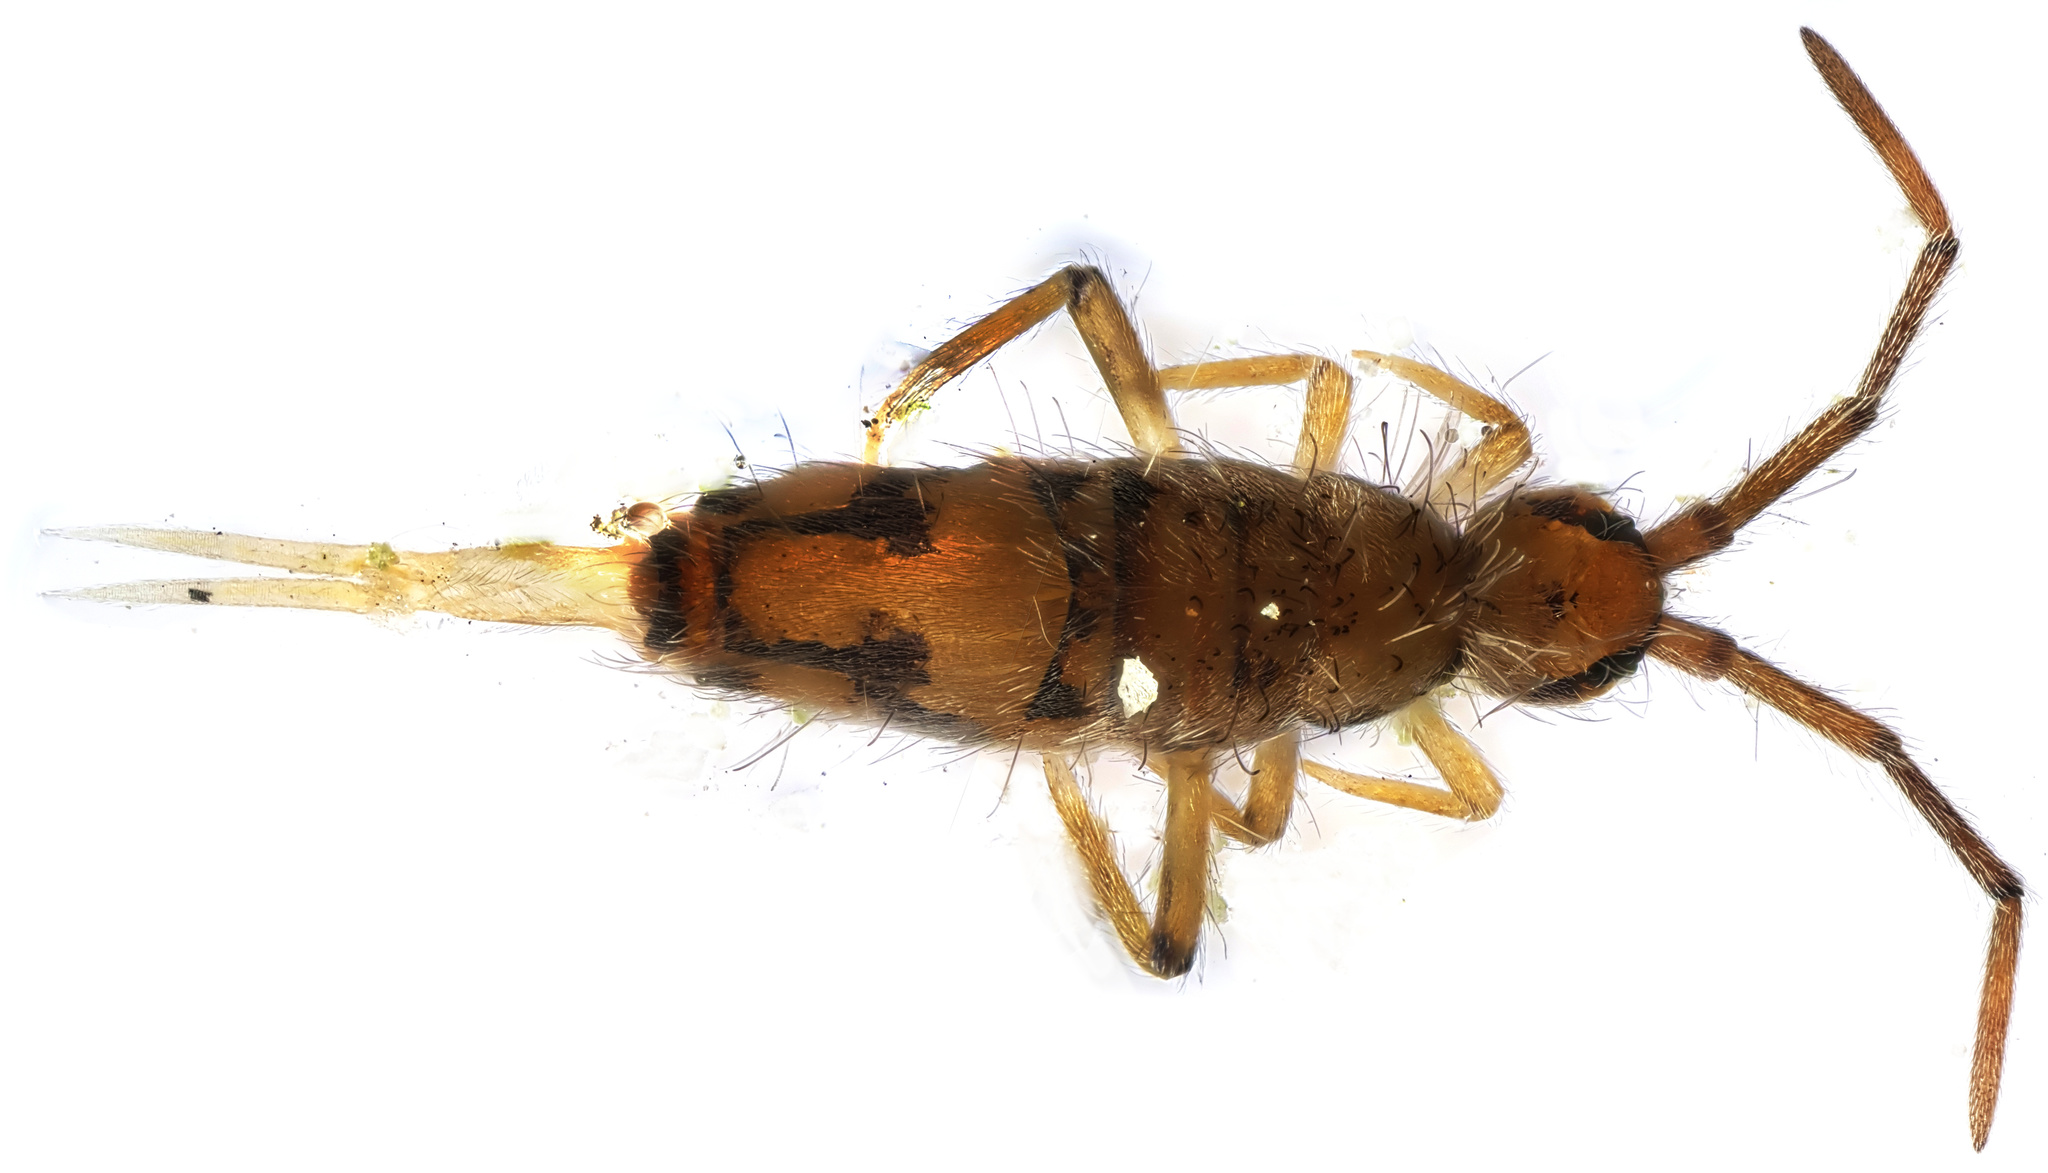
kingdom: Animalia
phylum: Arthropoda
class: Collembola
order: Entomobryomorpha
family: Entomobryidae
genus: Entomobrya
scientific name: Entomobrya nivalis
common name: Cosmopolitan springtail
